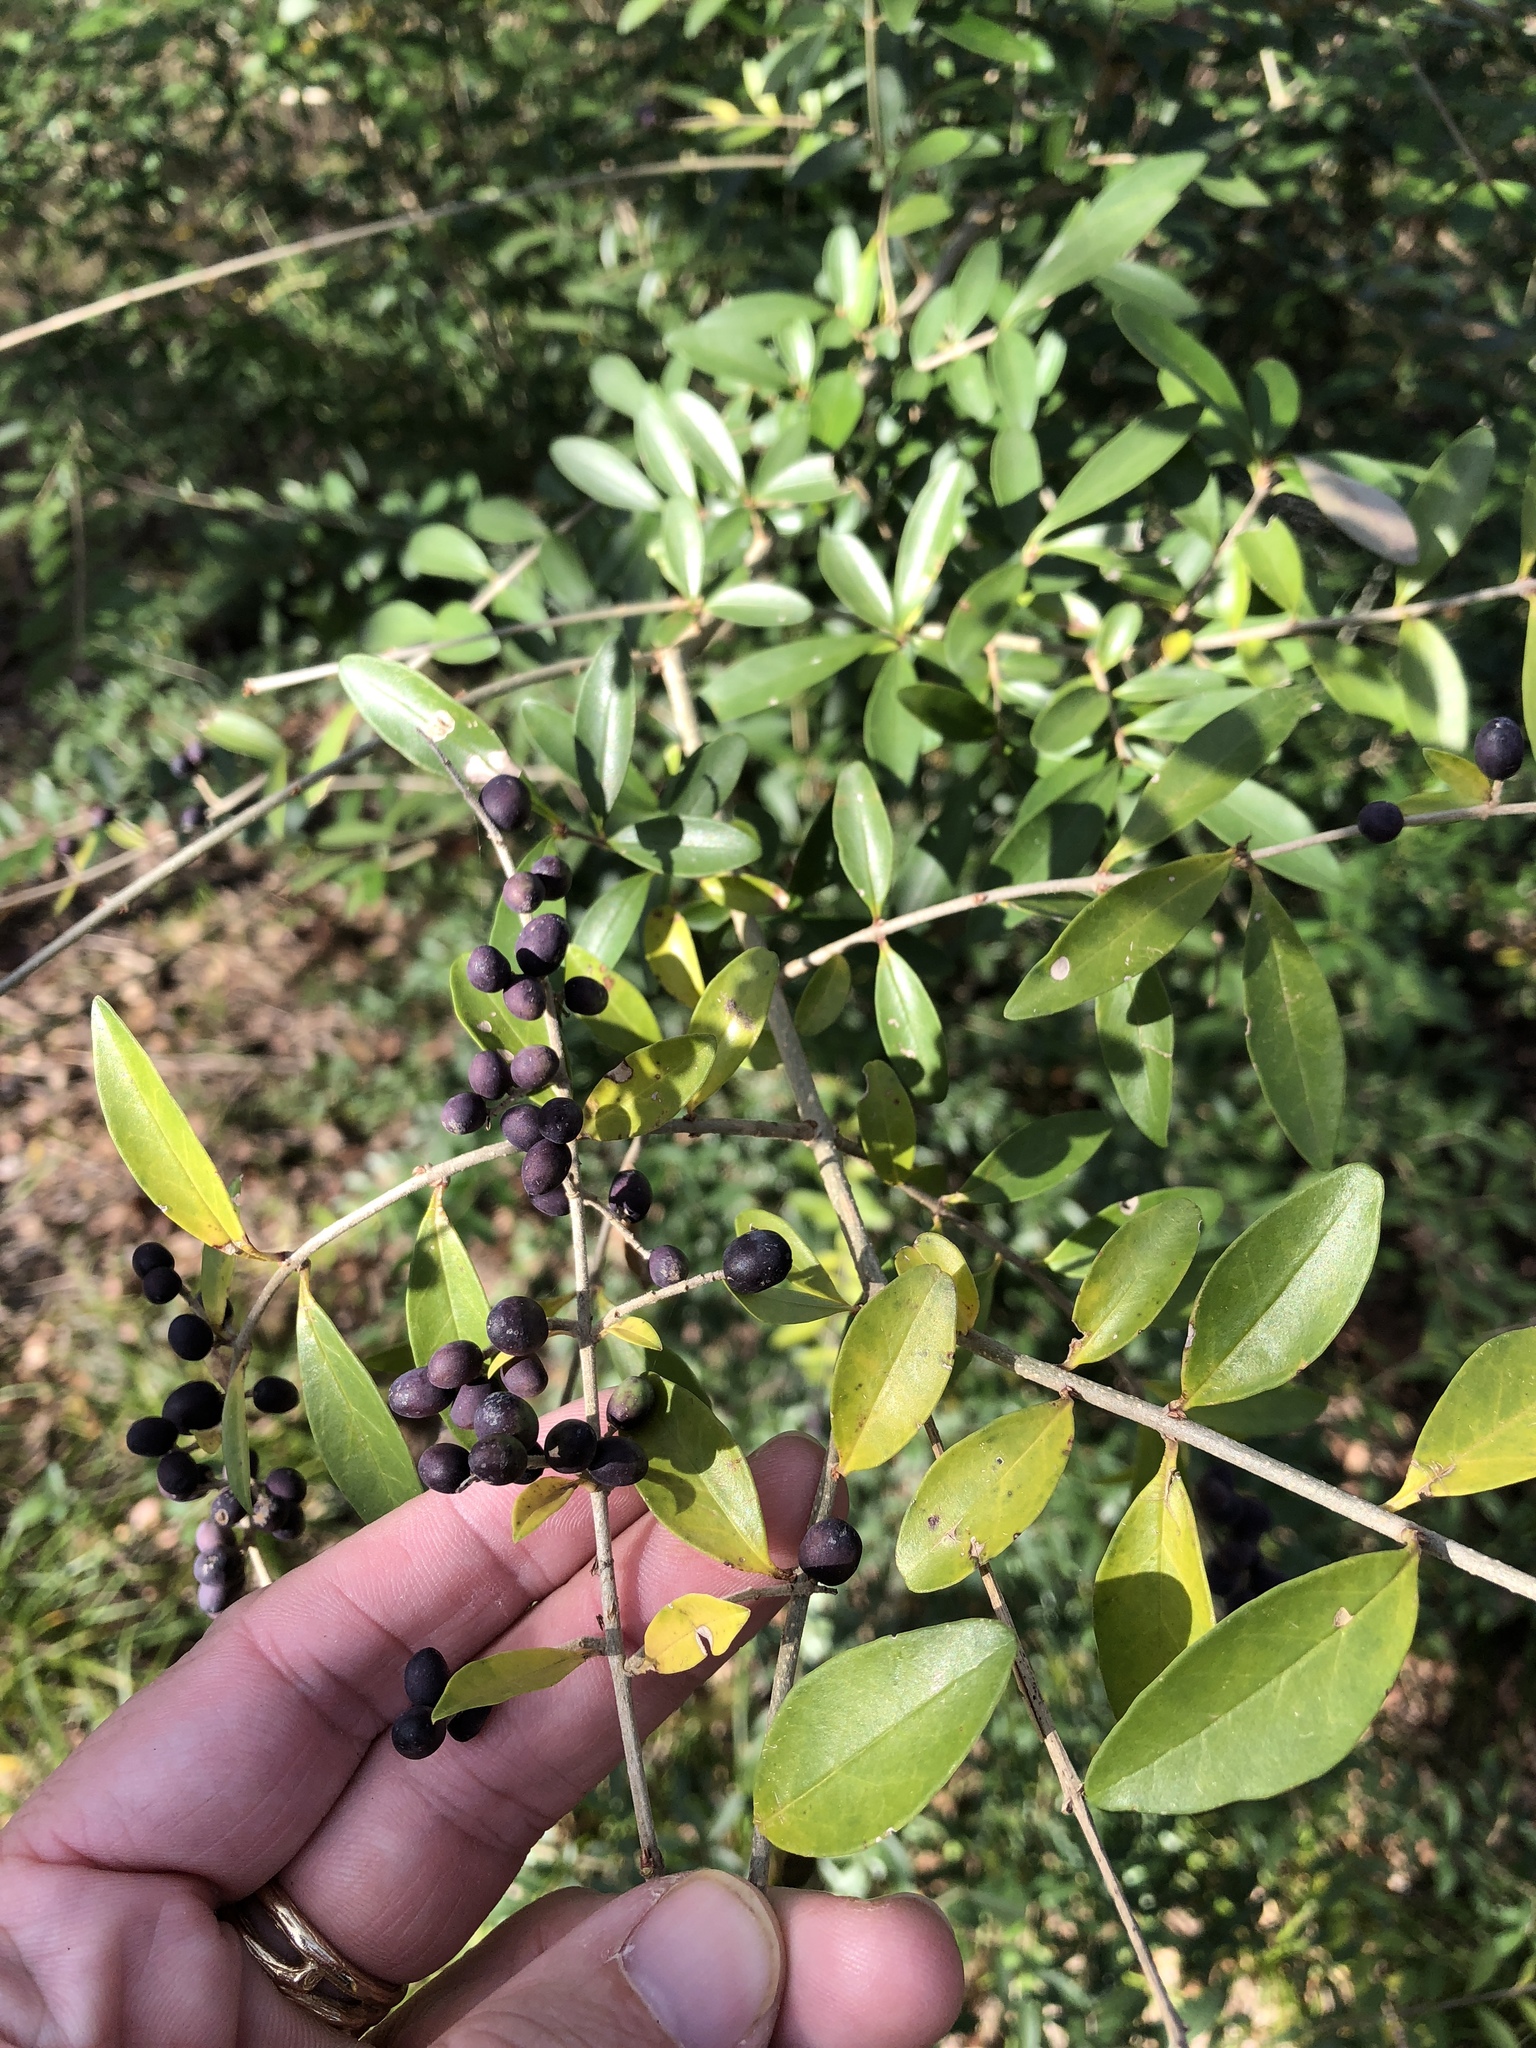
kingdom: Plantae
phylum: Tracheophyta
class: Magnoliopsida
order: Lamiales
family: Oleaceae
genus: Ligustrum
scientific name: Ligustrum quihoui
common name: Waxyleaf privet
